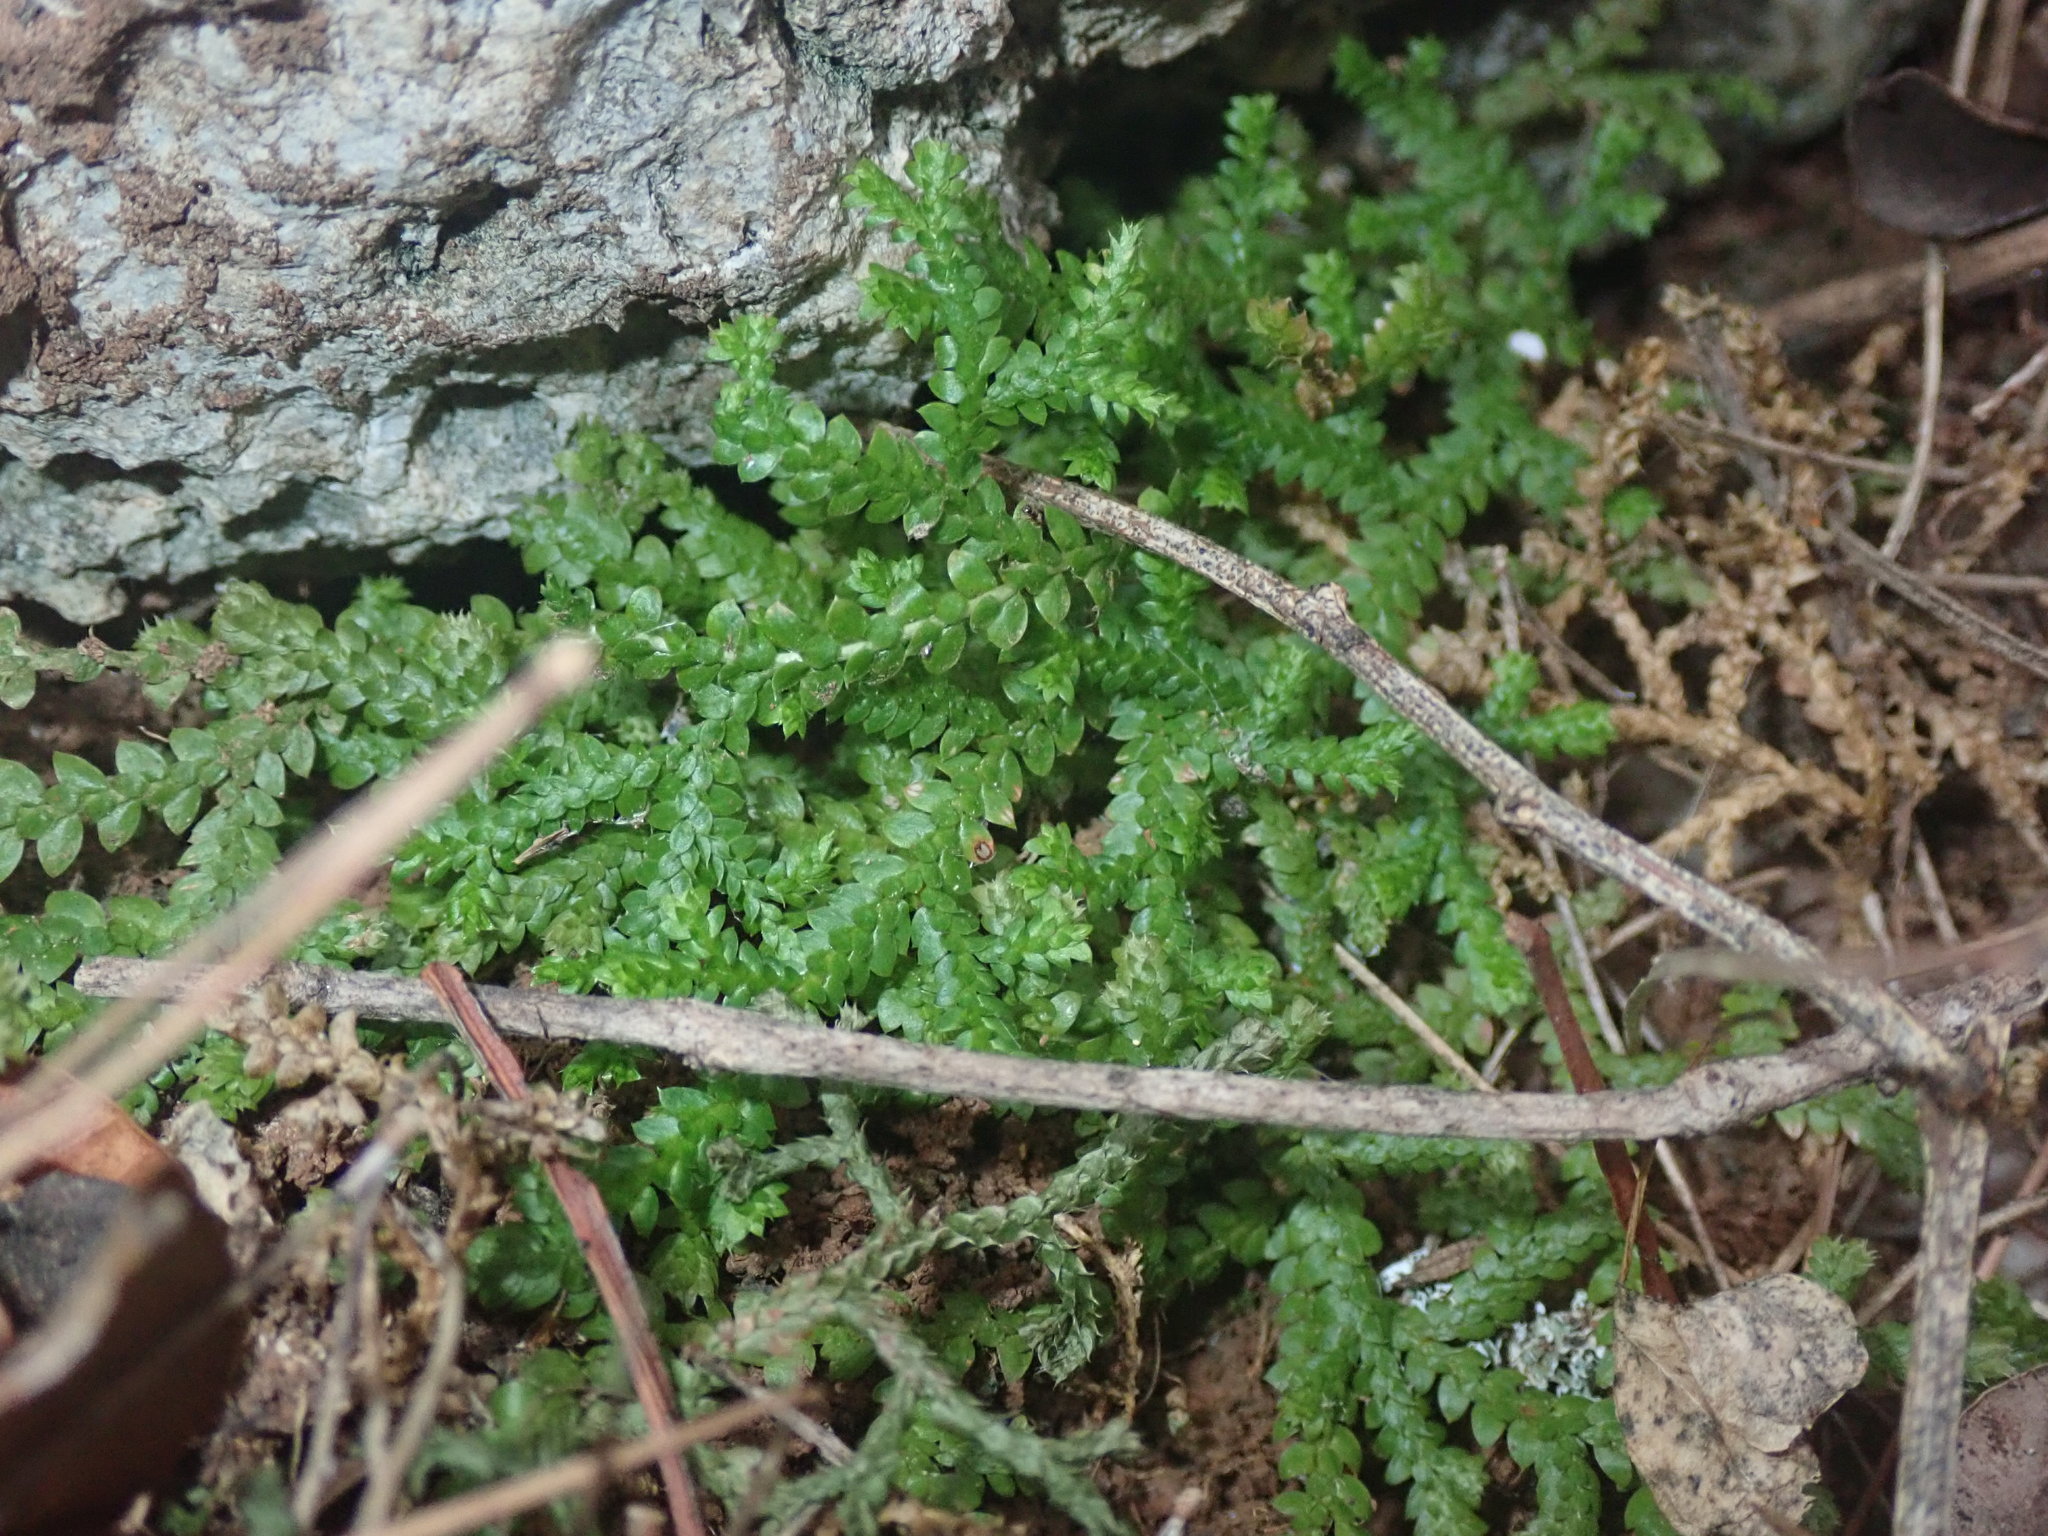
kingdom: Plantae
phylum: Tracheophyta
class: Lycopodiopsida
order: Selaginellales
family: Selaginellaceae
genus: Selaginella
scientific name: Selaginella denticulata
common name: Toothed-leaved clubmoss
